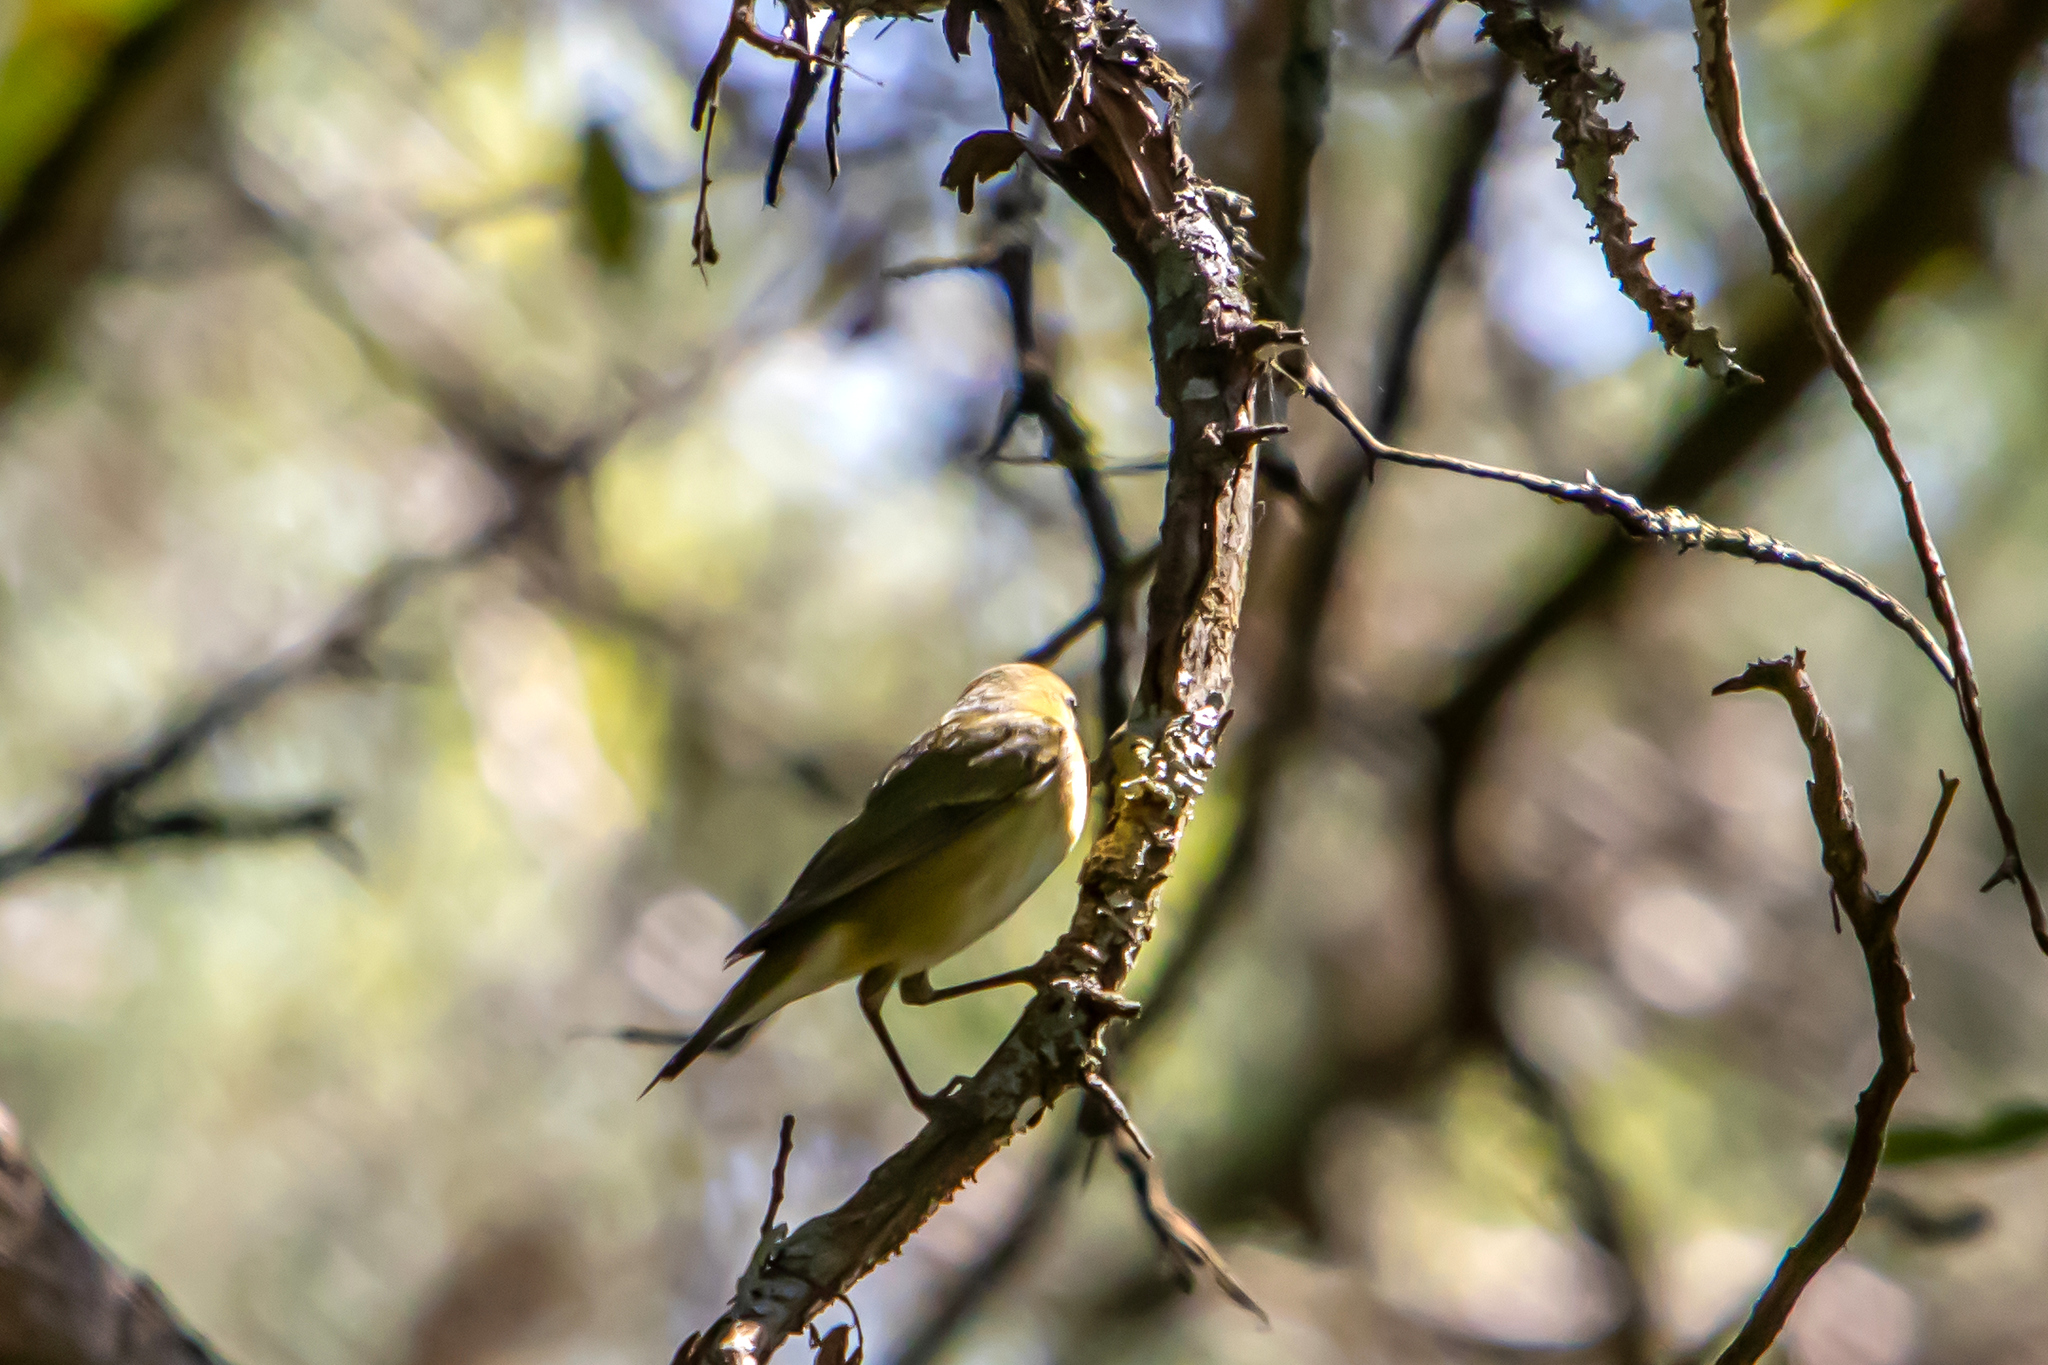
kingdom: Animalia
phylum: Chordata
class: Aves
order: Passeriformes
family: Parulidae
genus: Leiothlypis
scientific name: Leiothlypis peregrina
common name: Tennessee warbler
